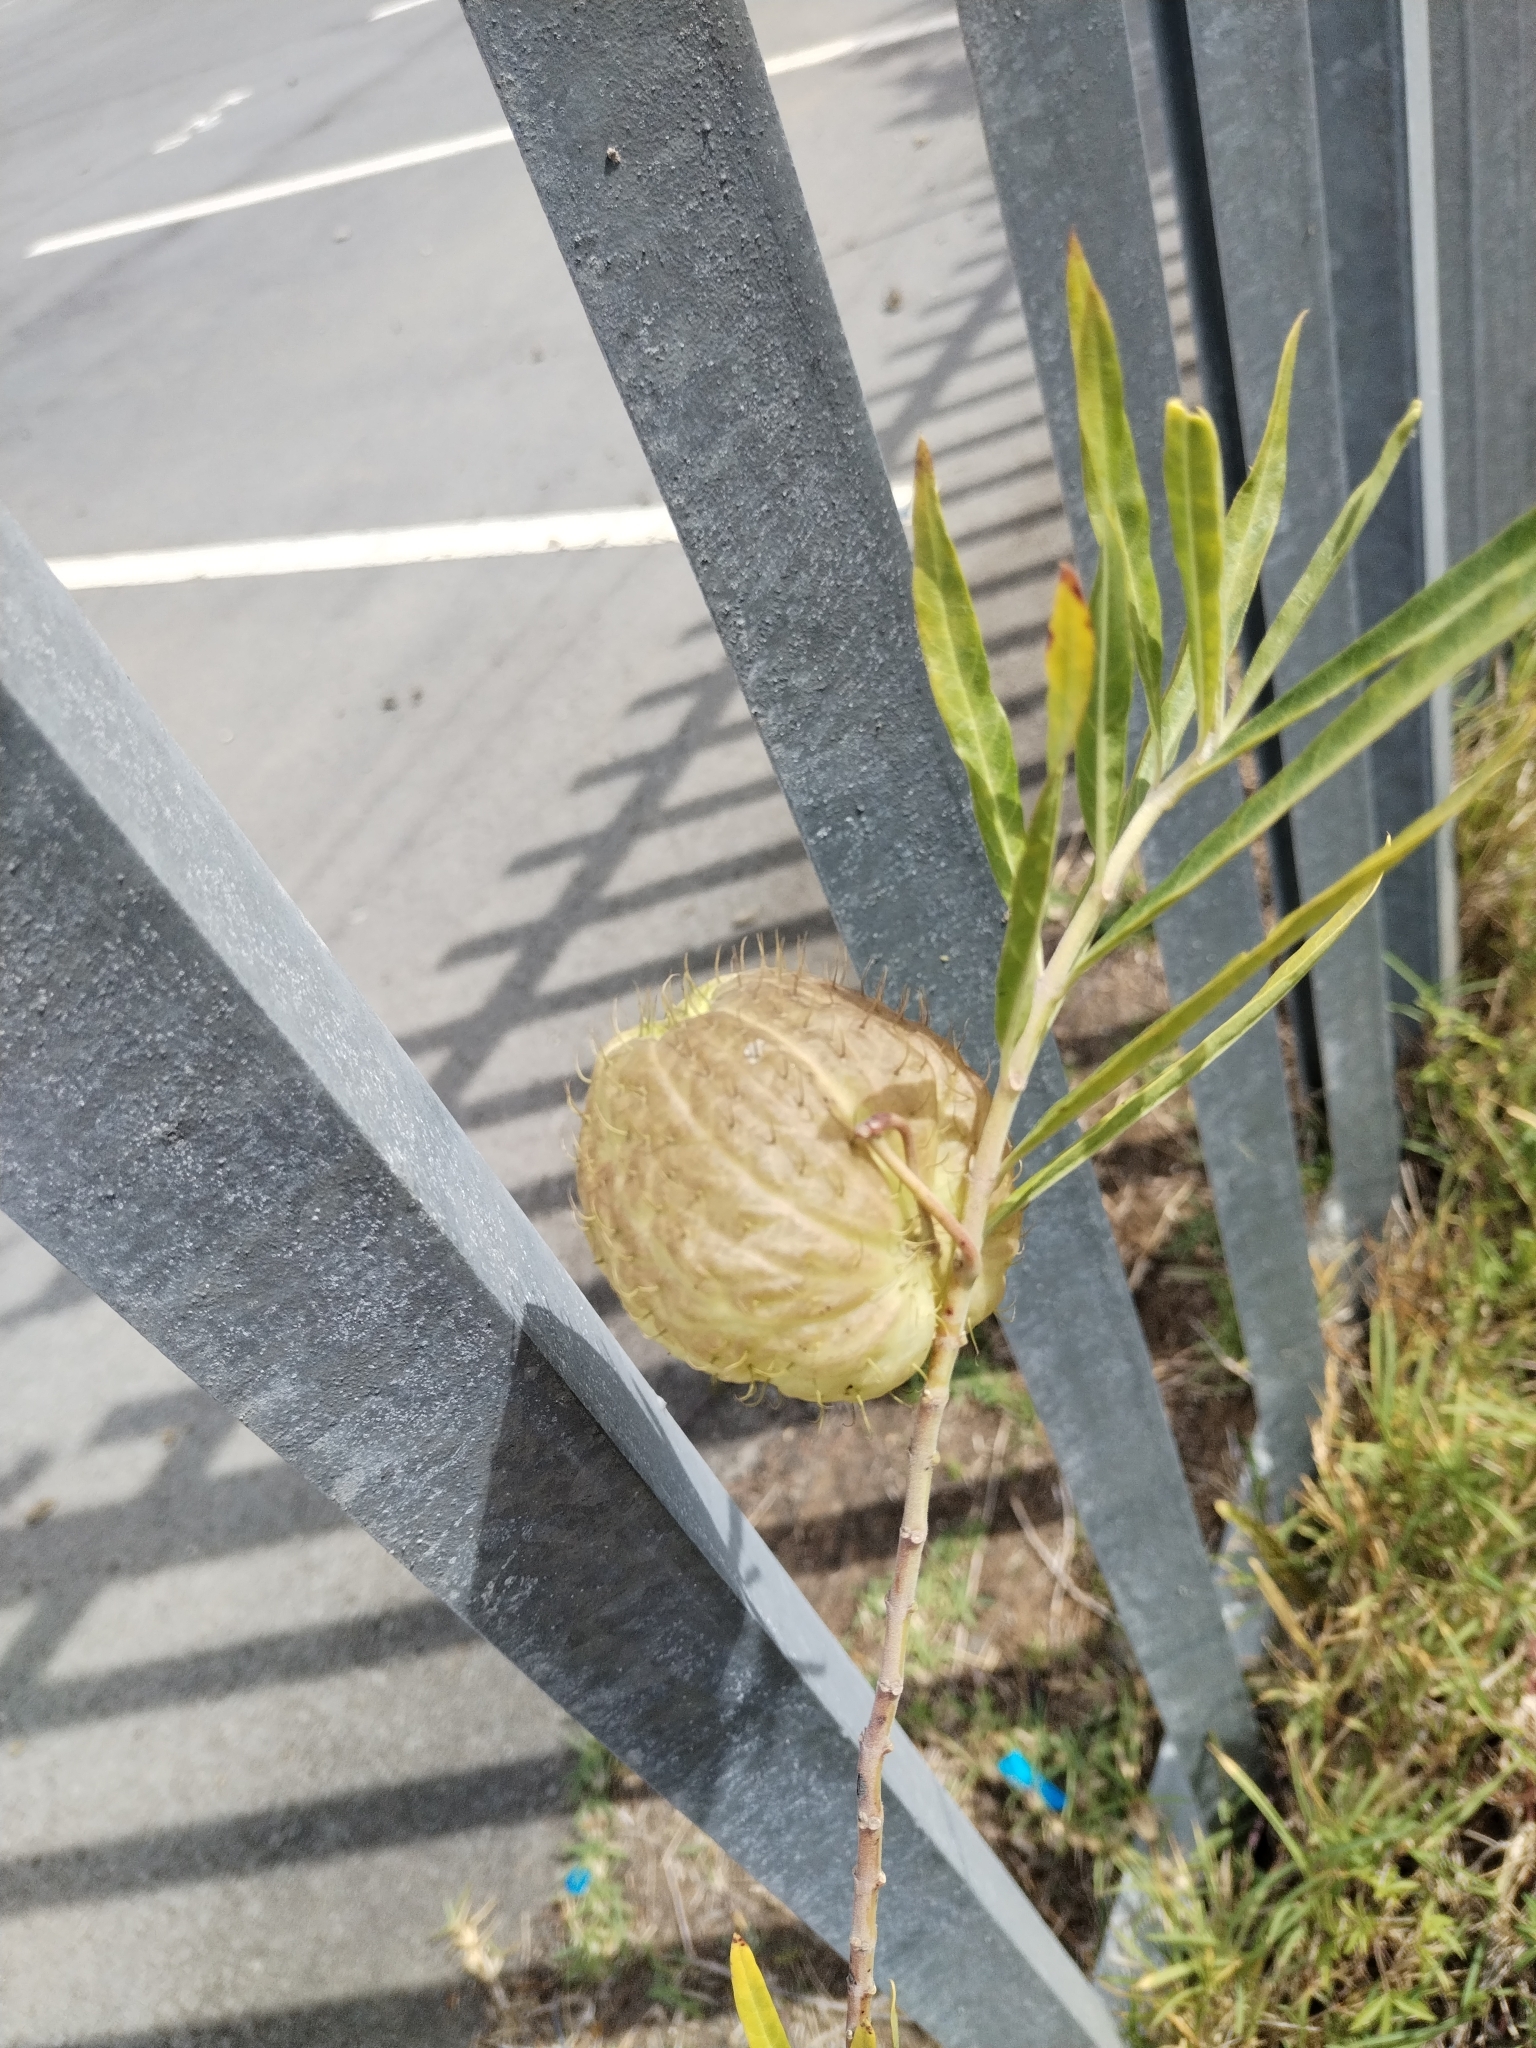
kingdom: Plantae
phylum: Tracheophyta
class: Magnoliopsida
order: Gentianales
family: Apocynaceae
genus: Gomphocarpus
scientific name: Gomphocarpus physocarpus
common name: Balloon cotton bush
